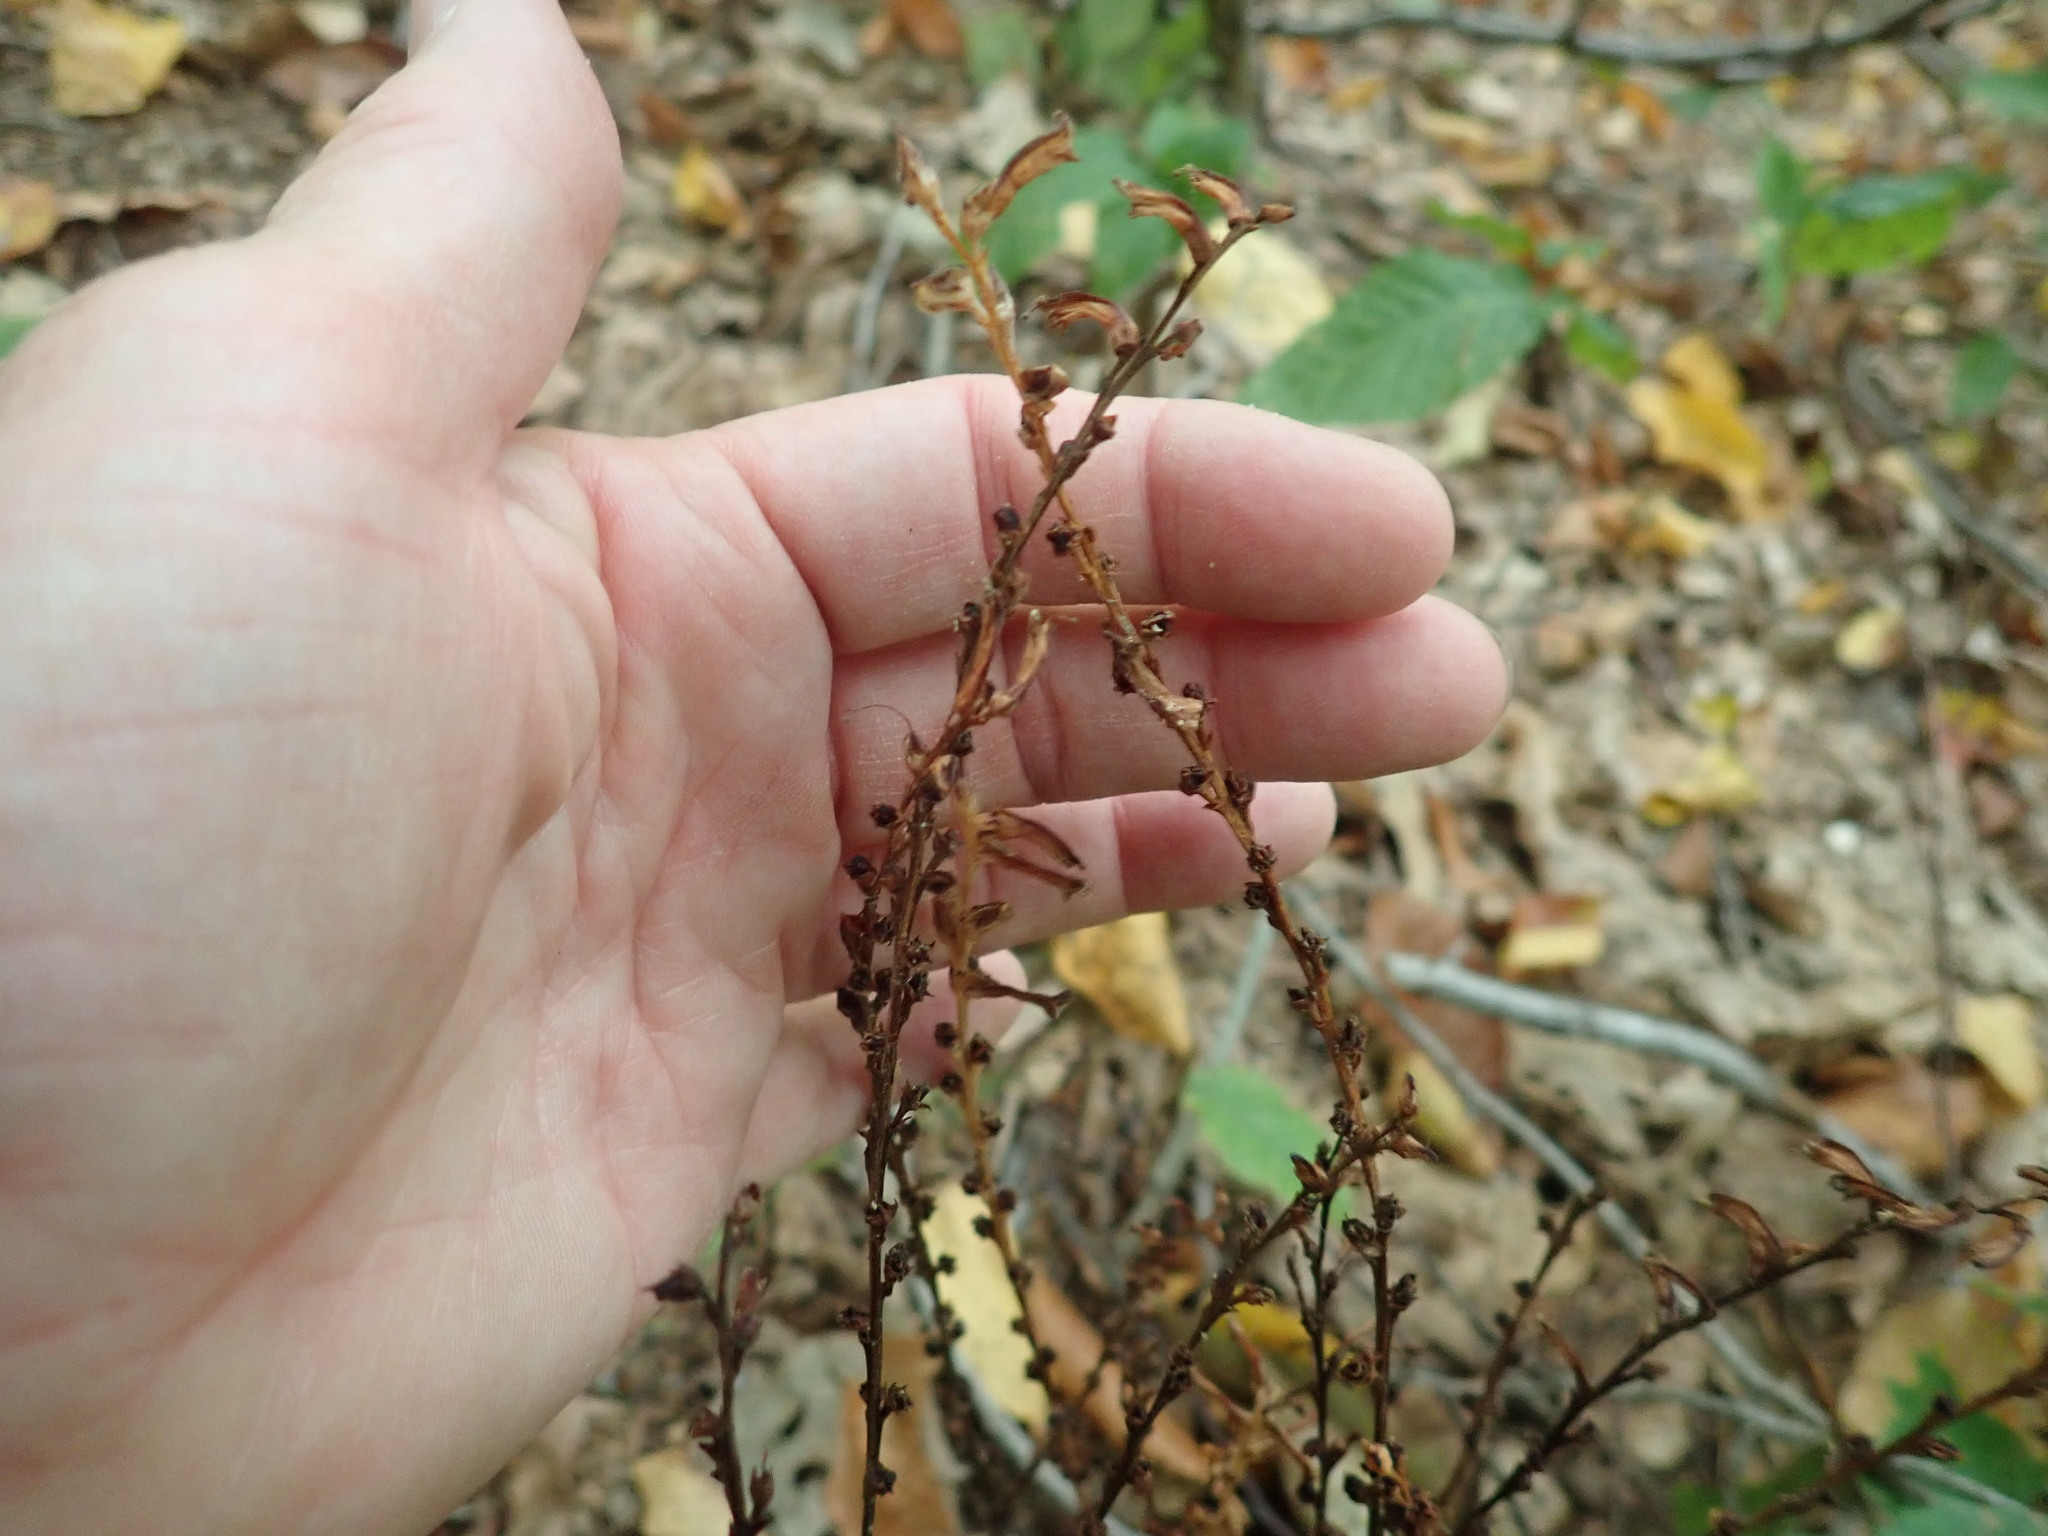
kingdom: Plantae
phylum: Tracheophyta
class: Magnoliopsida
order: Lamiales
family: Orobanchaceae
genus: Epifagus
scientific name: Epifagus virginiana
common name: Beechdrops
